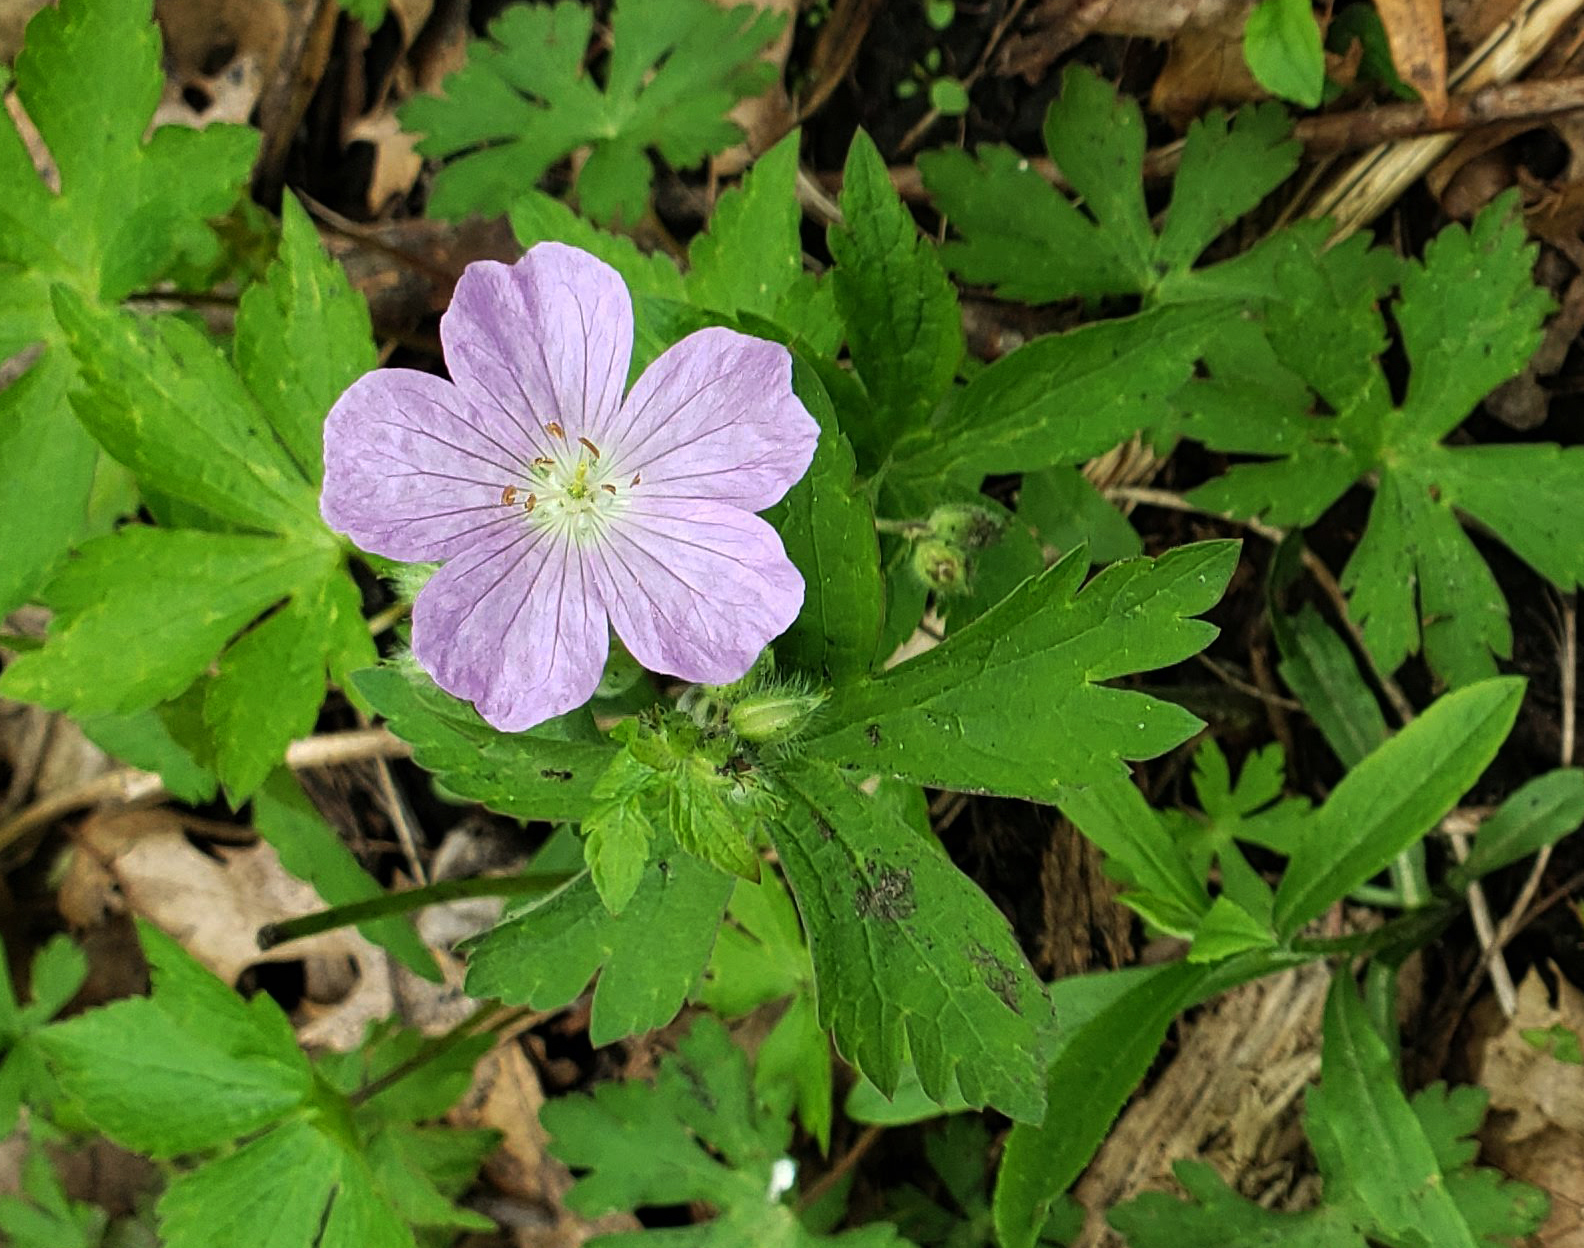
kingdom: Plantae
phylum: Tracheophyta
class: Magnoliopsida
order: Geraniales
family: Geraniaceae
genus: Geranium
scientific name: Geranium maculatum
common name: Spotted geranium
